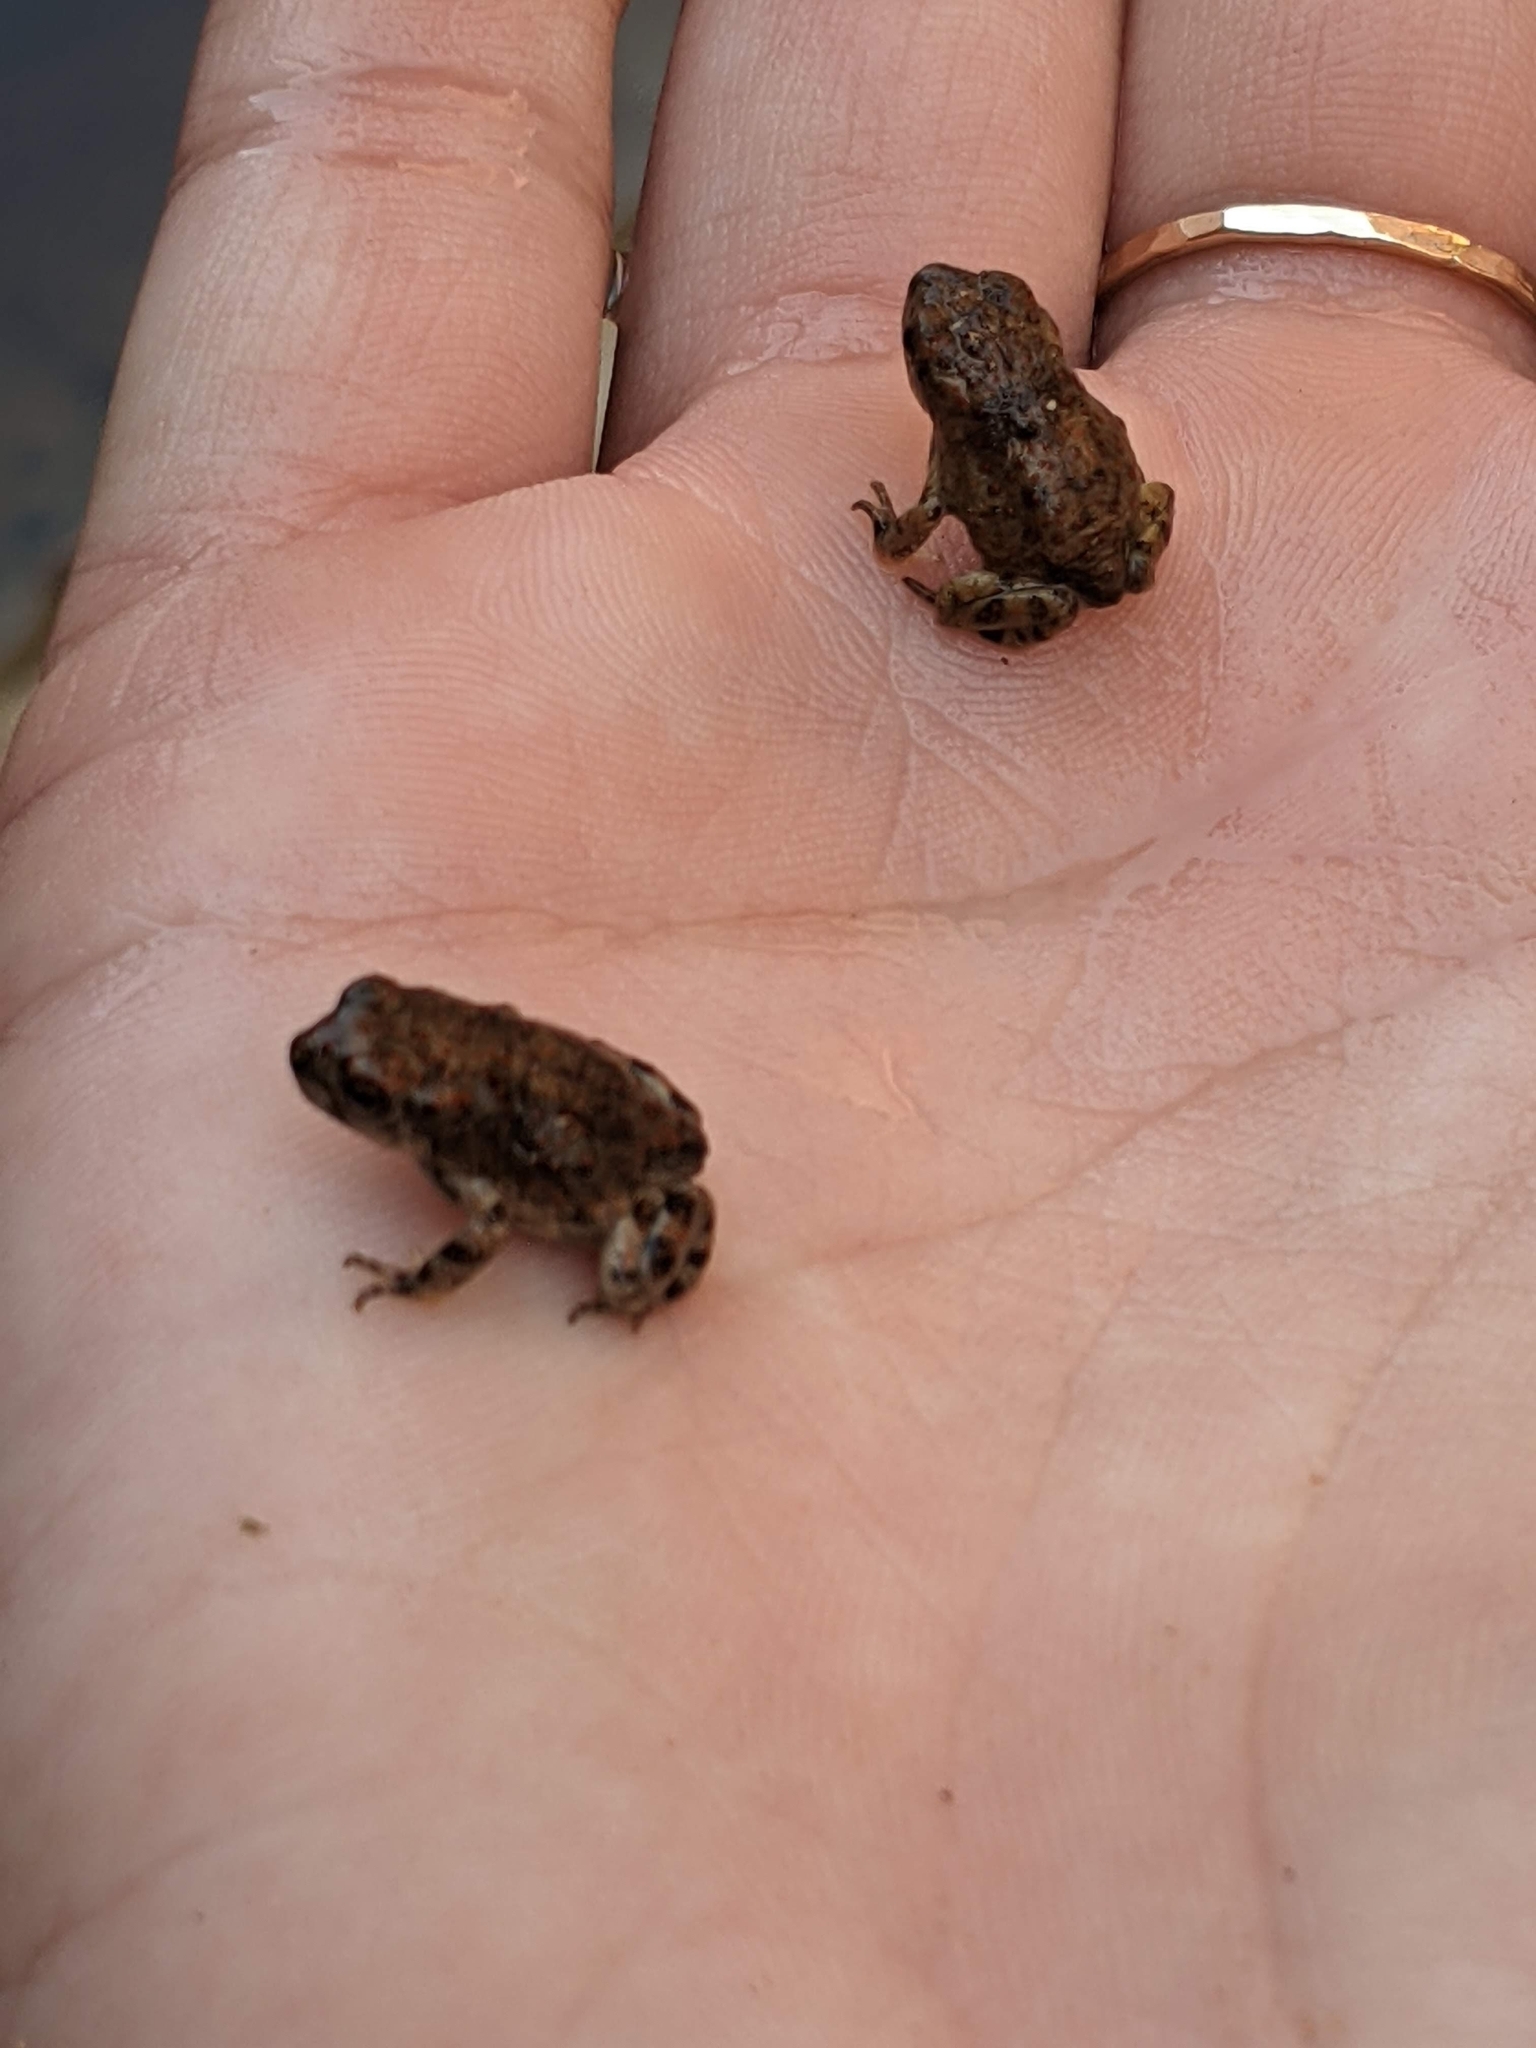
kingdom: Animalia
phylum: Chordata
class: Amphibia
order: Anura
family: Bufonidae
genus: Anaxyrus
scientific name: Anaxyrus punctatus
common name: Red-spotted toad
